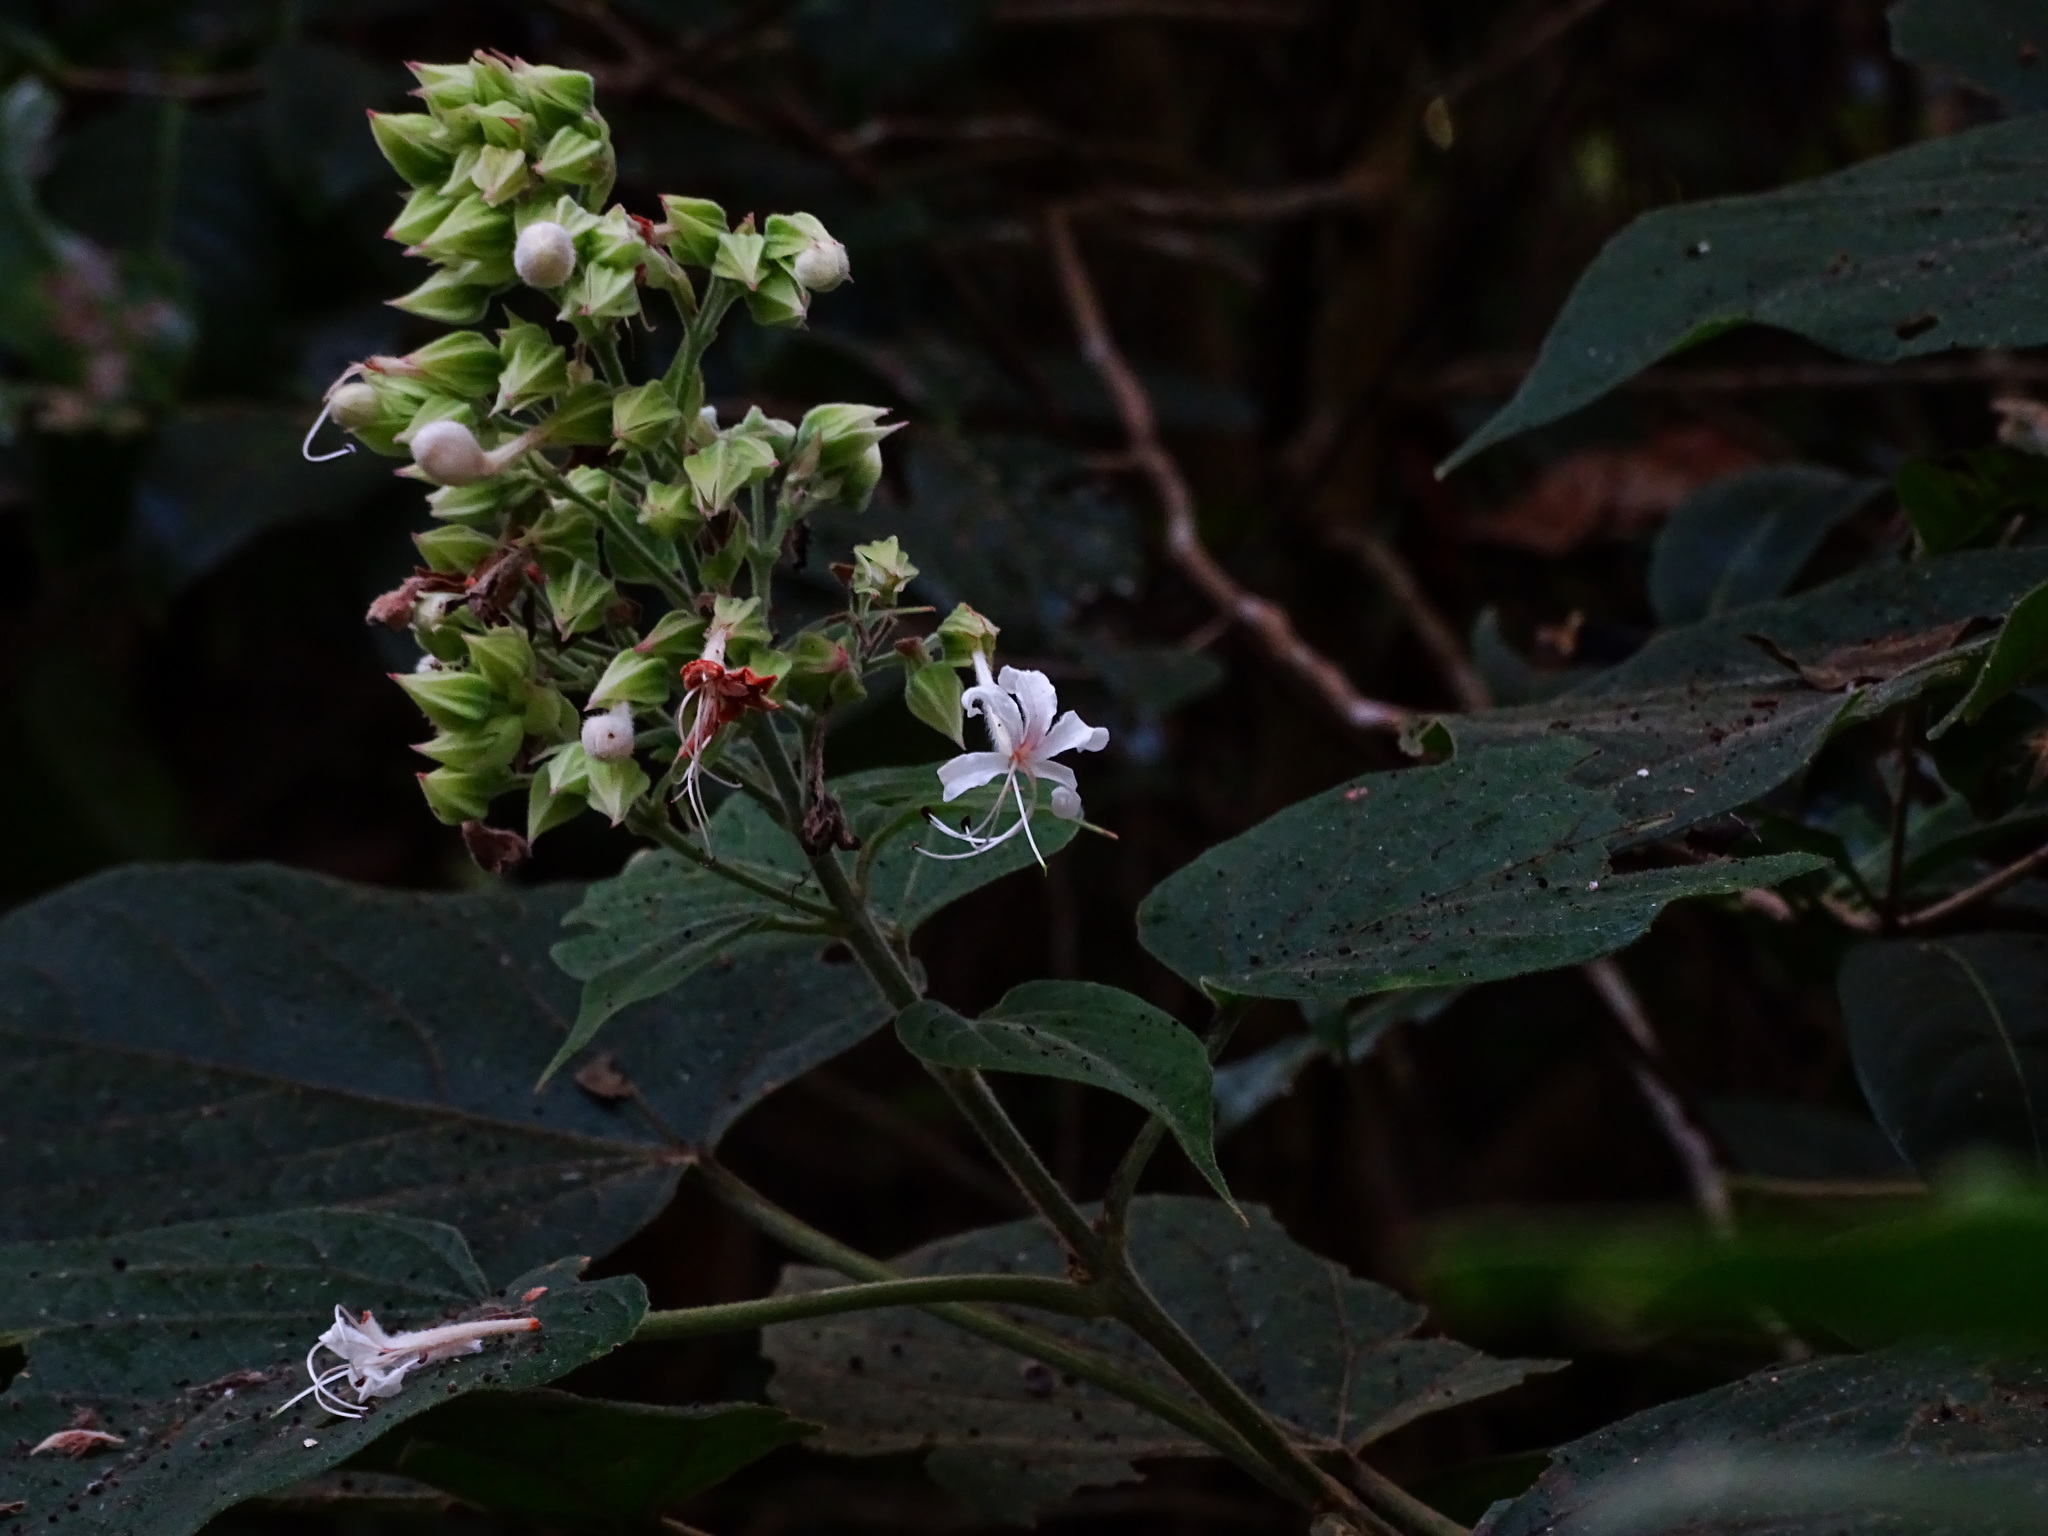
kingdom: Plantae
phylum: Tracheophyta
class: Magnoliopsida
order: Lamiales
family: Lamiaceae
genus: Clerodendrum
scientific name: Clerodendrum infortunatum
